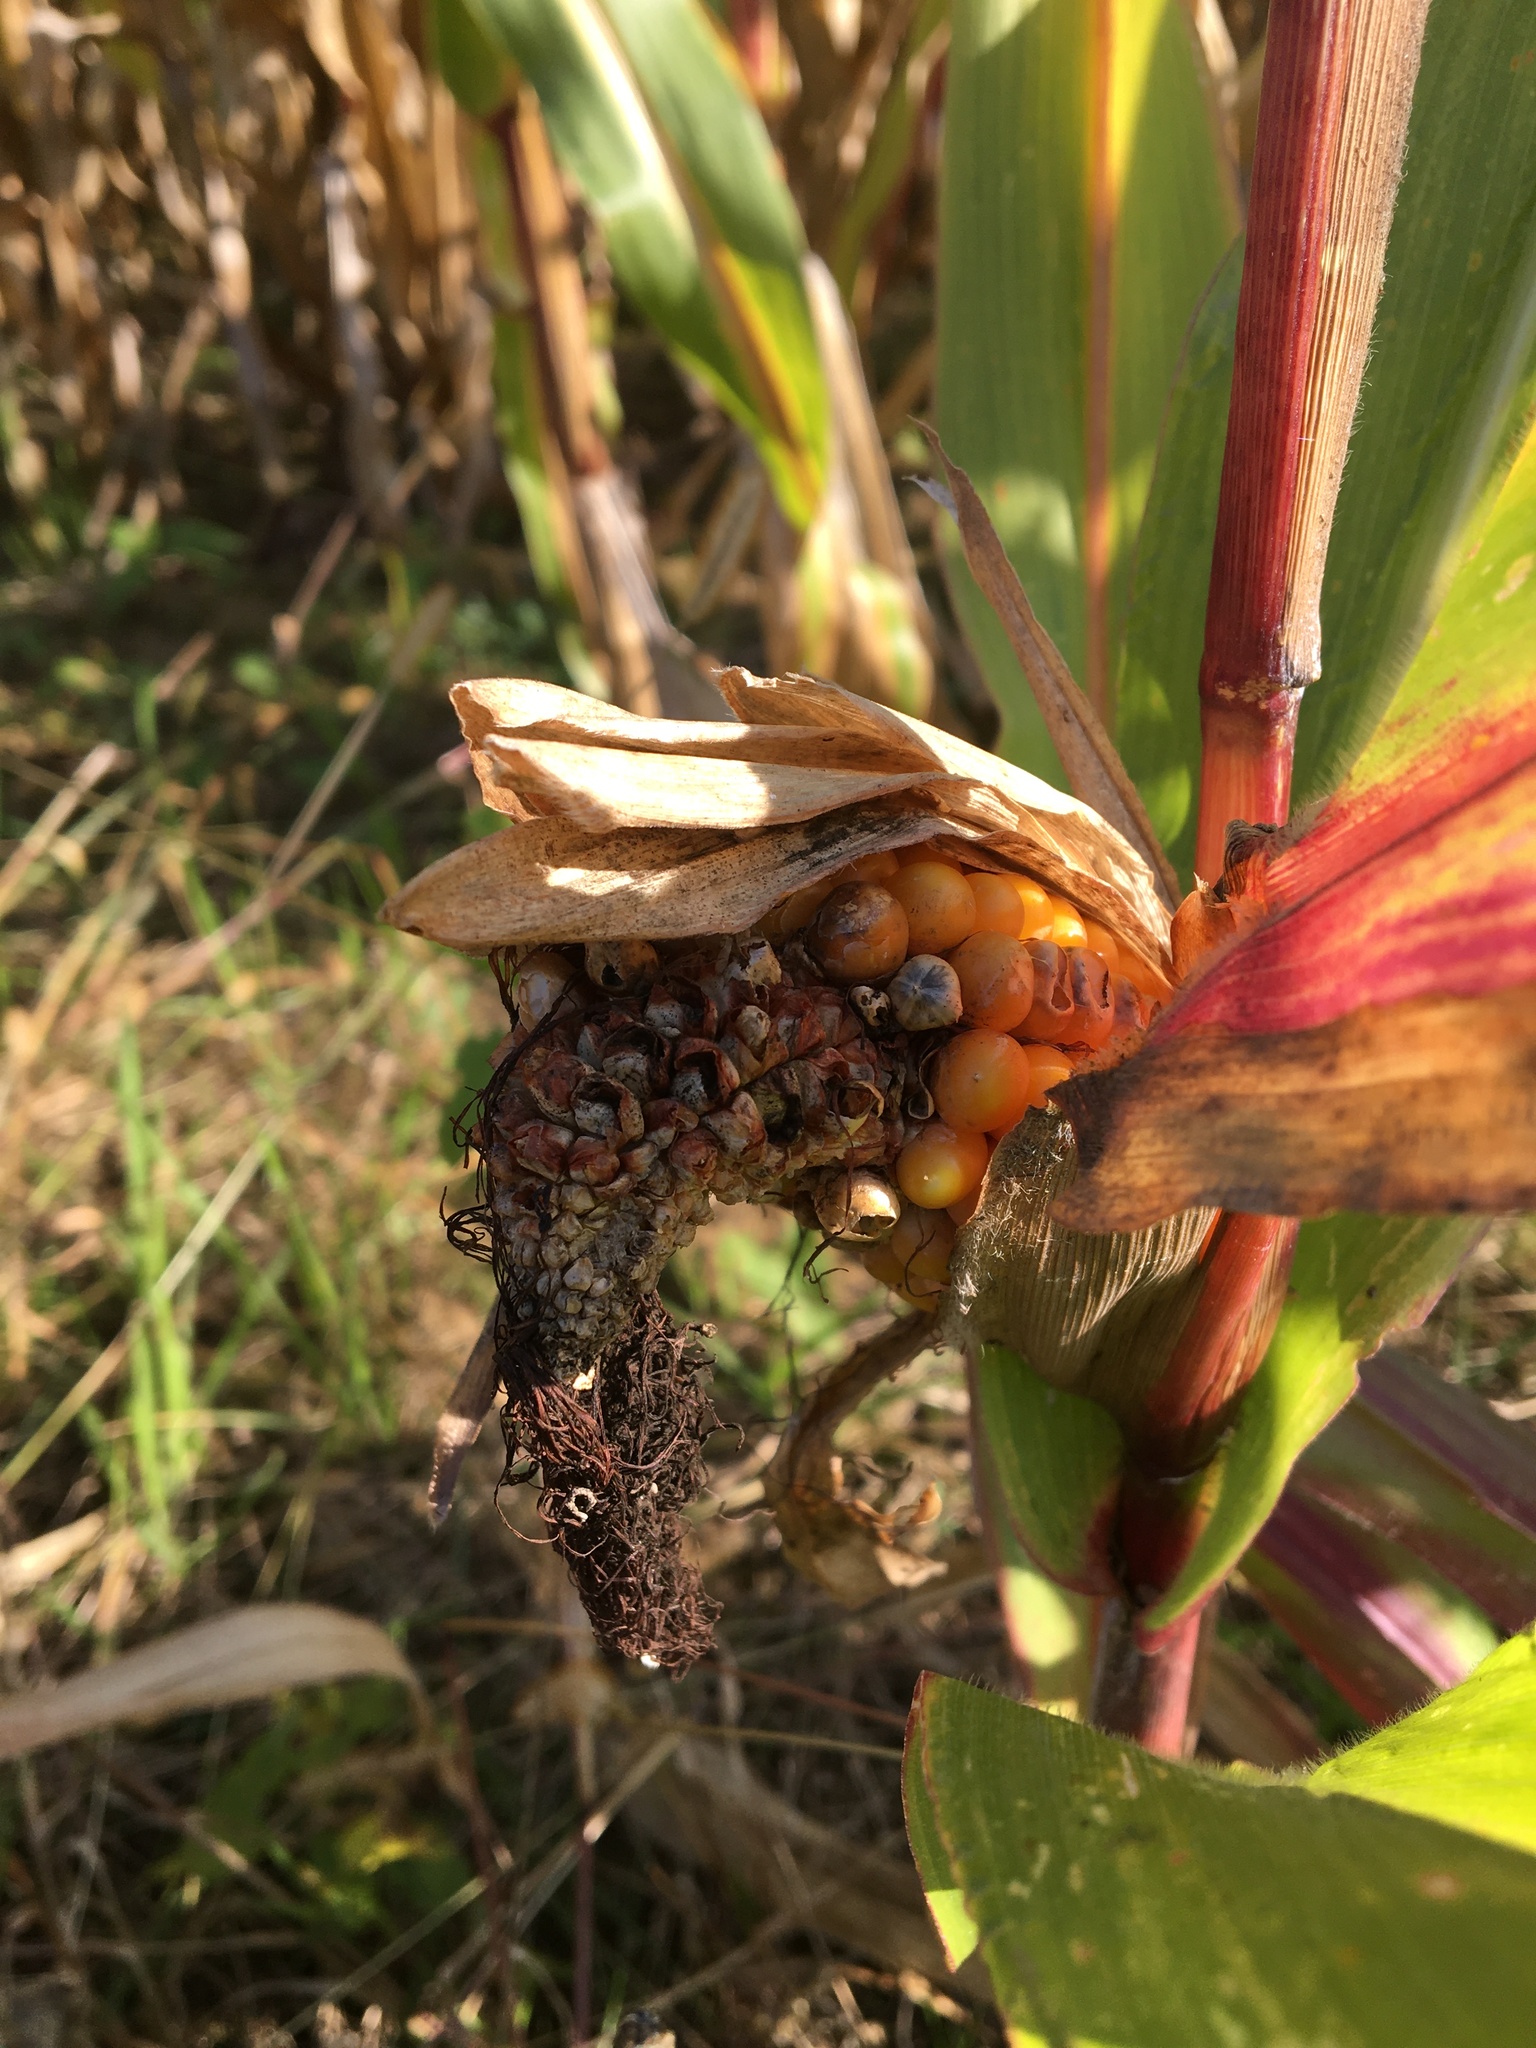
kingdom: Fungi
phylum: Basidiomycota
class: Ustilaginomycetes
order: Ustilaginales
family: Ustilaginaceae
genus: Mycosarcoma
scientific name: Mycosarcoma maydis
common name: Corn smut
